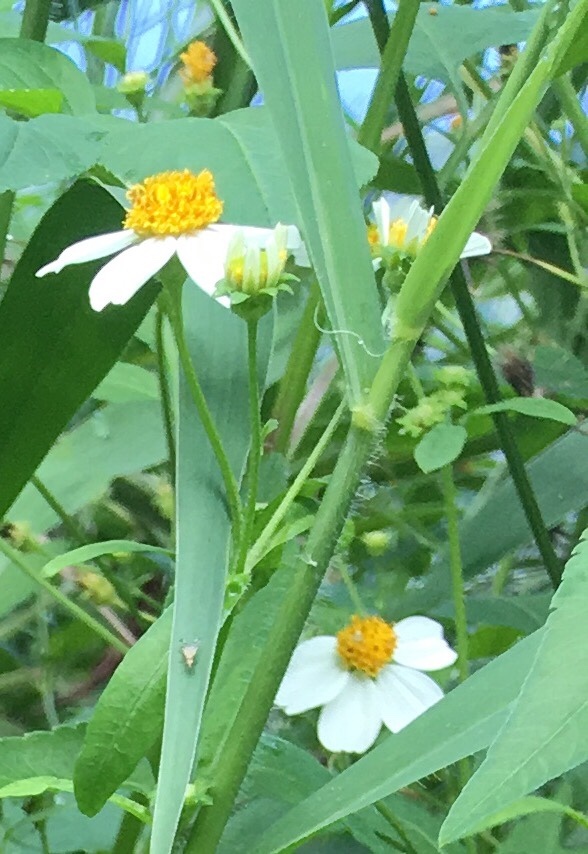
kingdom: Plantae
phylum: Tracheophyta
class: Magnoliopsida
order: Asterales
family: Asteraceae
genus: Bidens
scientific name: Bidens pilosa
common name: Black-jack
